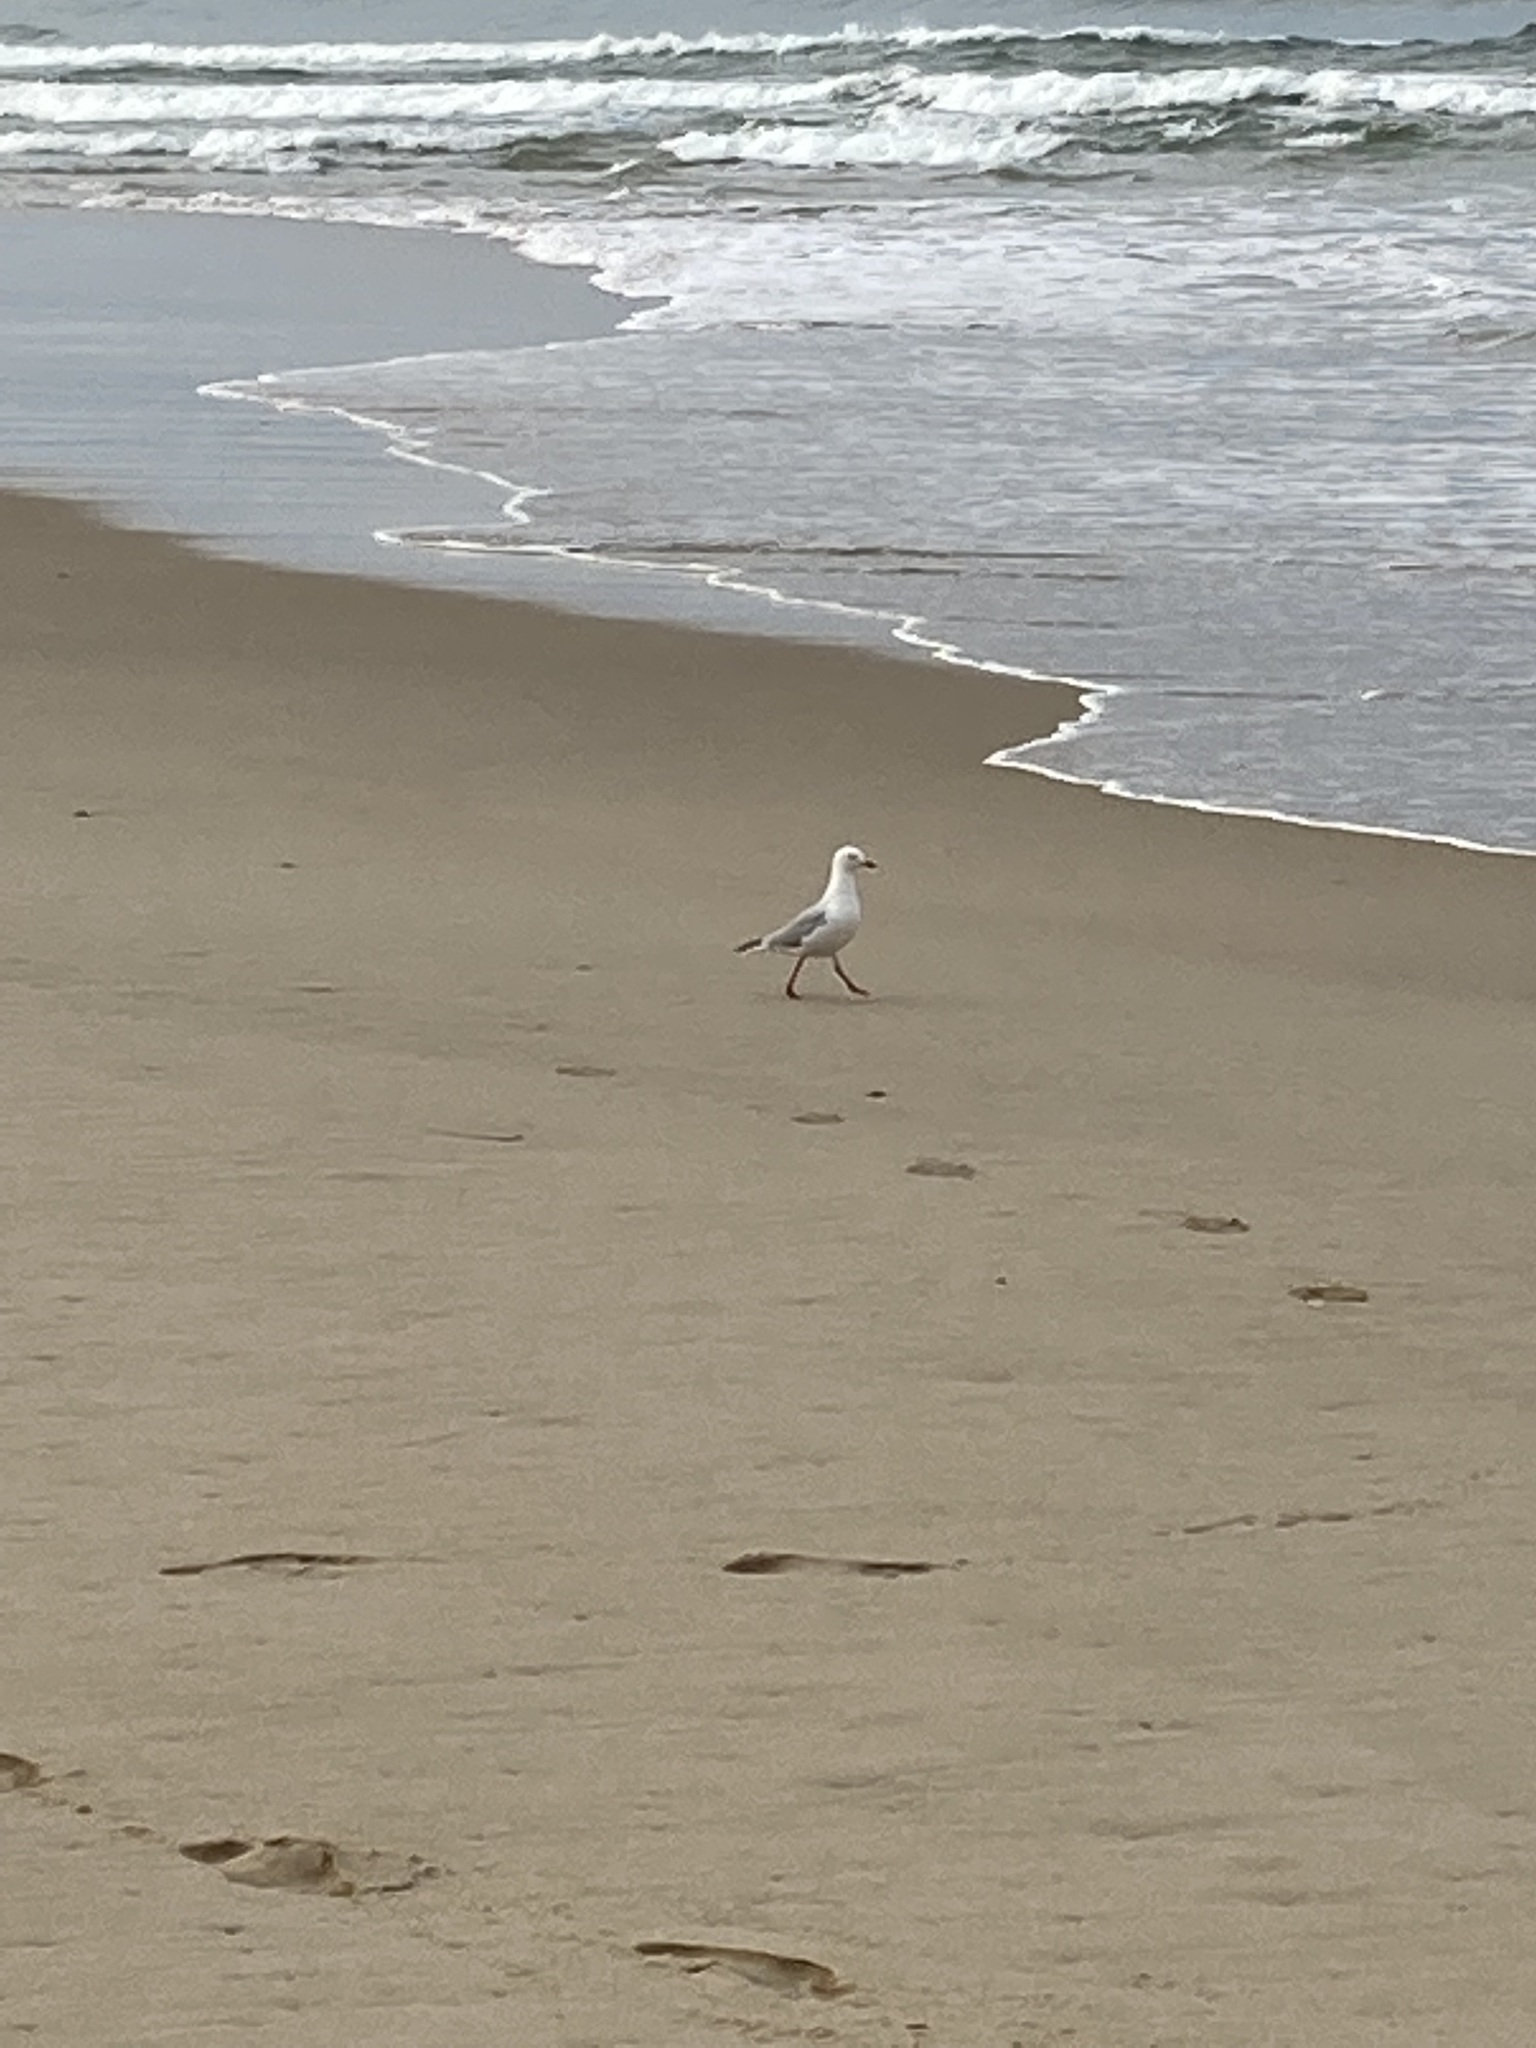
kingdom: Animalia
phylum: Chordata
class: Aves
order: Charadriiformes
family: Laridae
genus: Chroicocephalus
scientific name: Chroicocephalus novaehollandiae
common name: Silver gull
